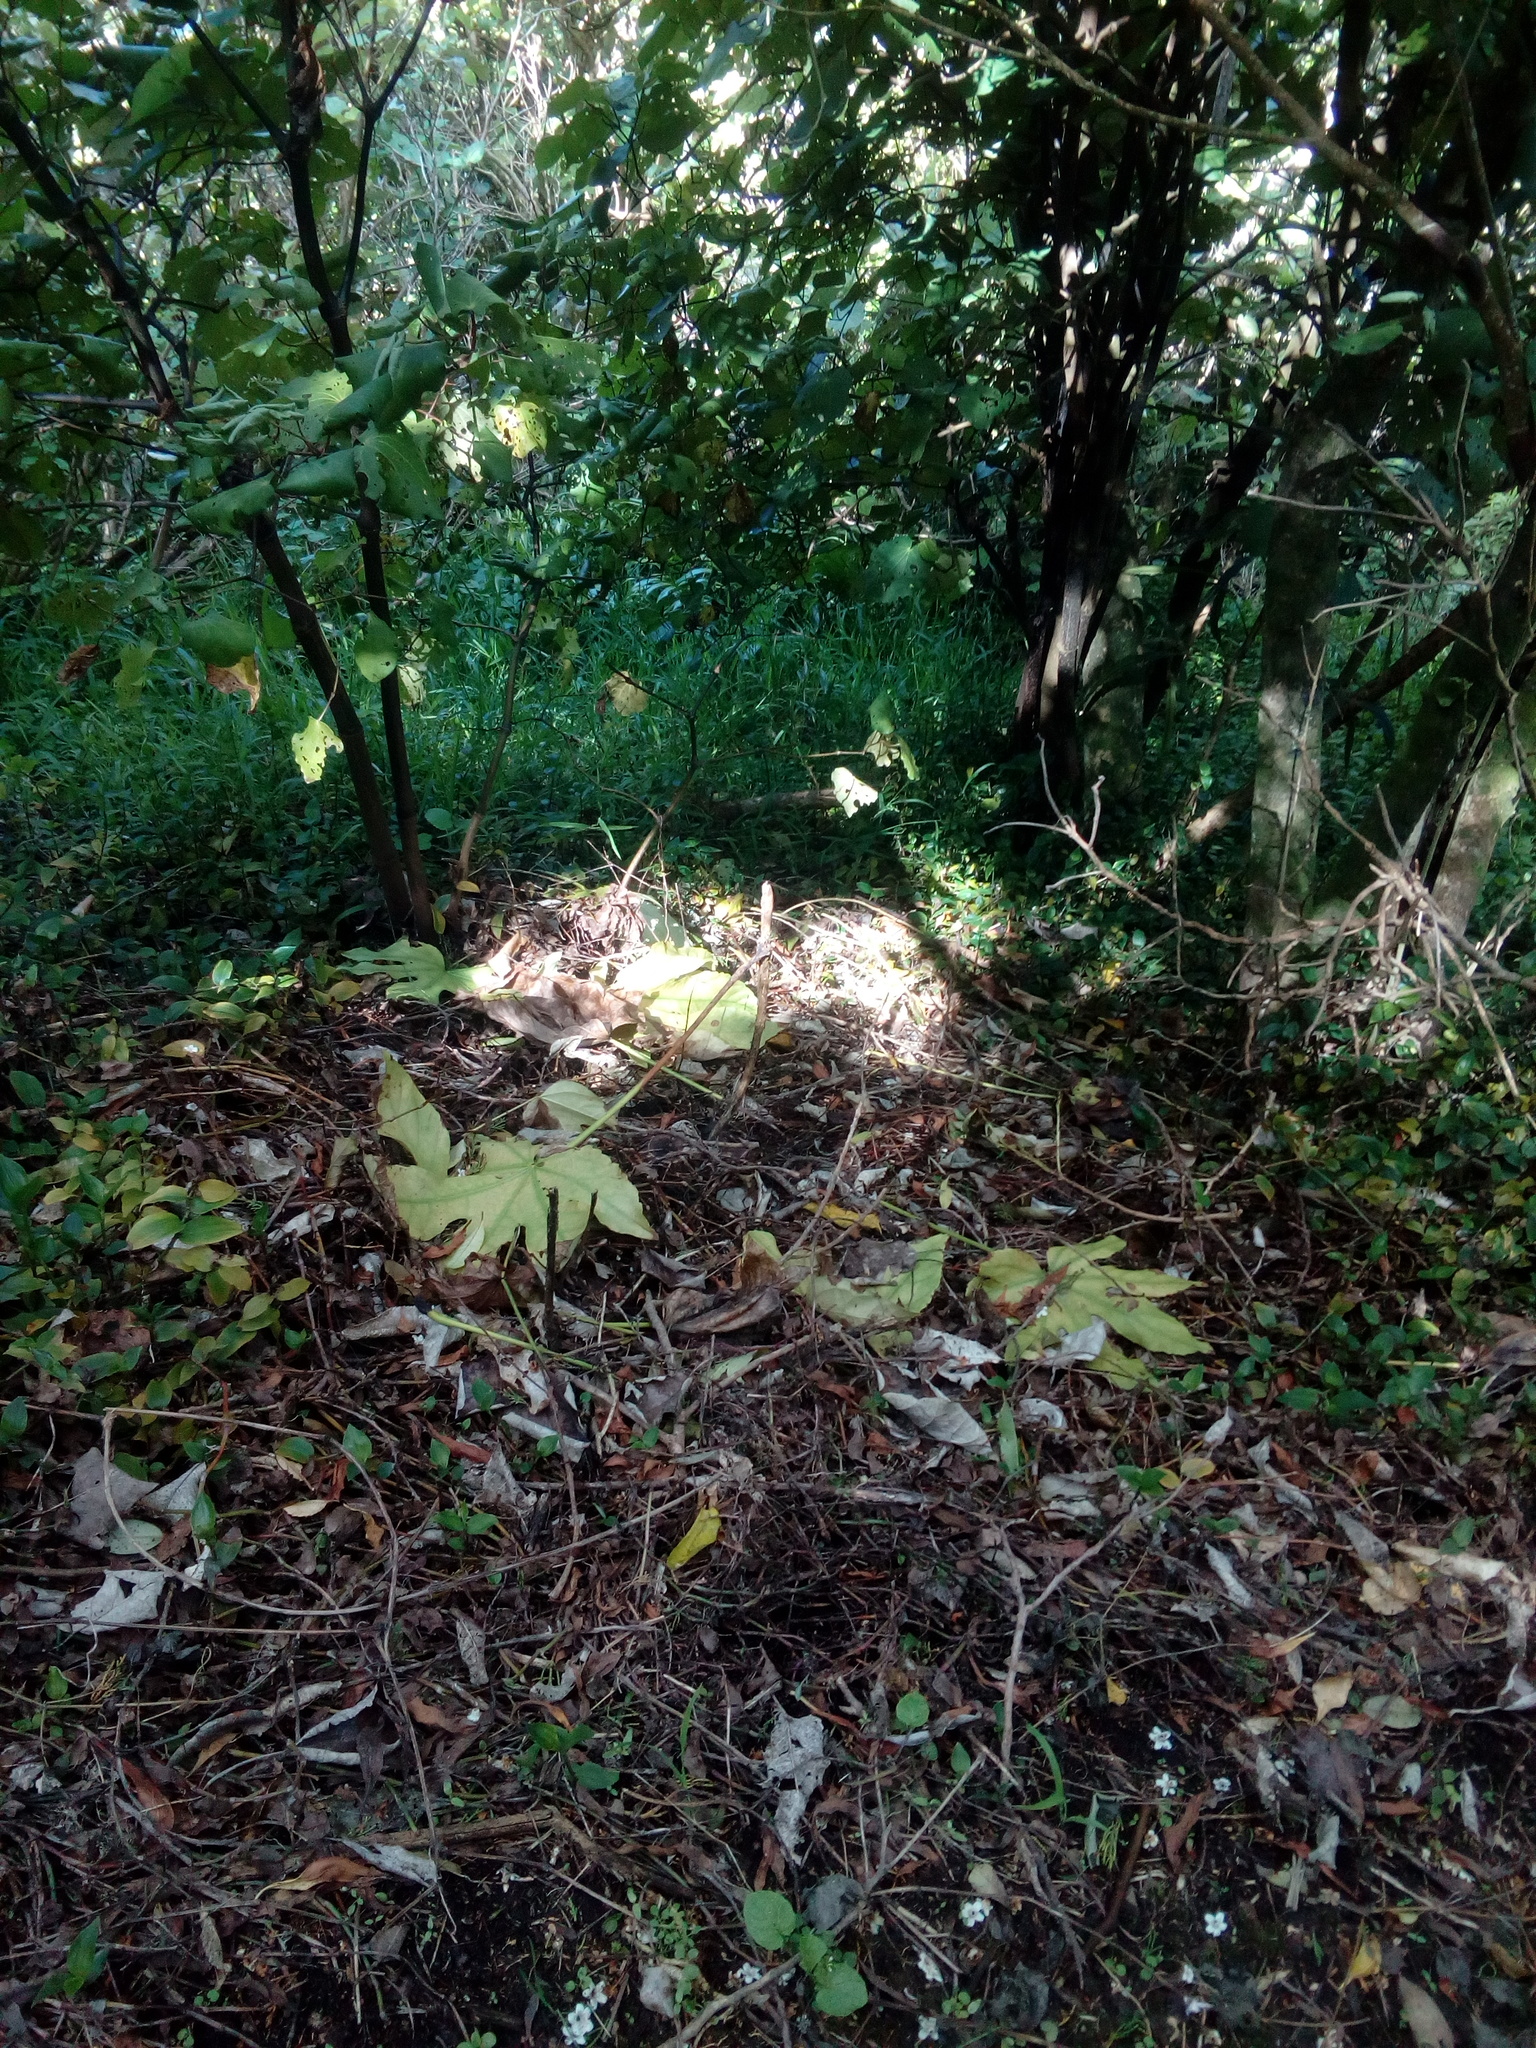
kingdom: Plantae
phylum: Tracheophyta
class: Magnoliopsida
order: Apiales
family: Araliaceae
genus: Fatsia
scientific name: Fatsia japonica
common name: Fatsia
